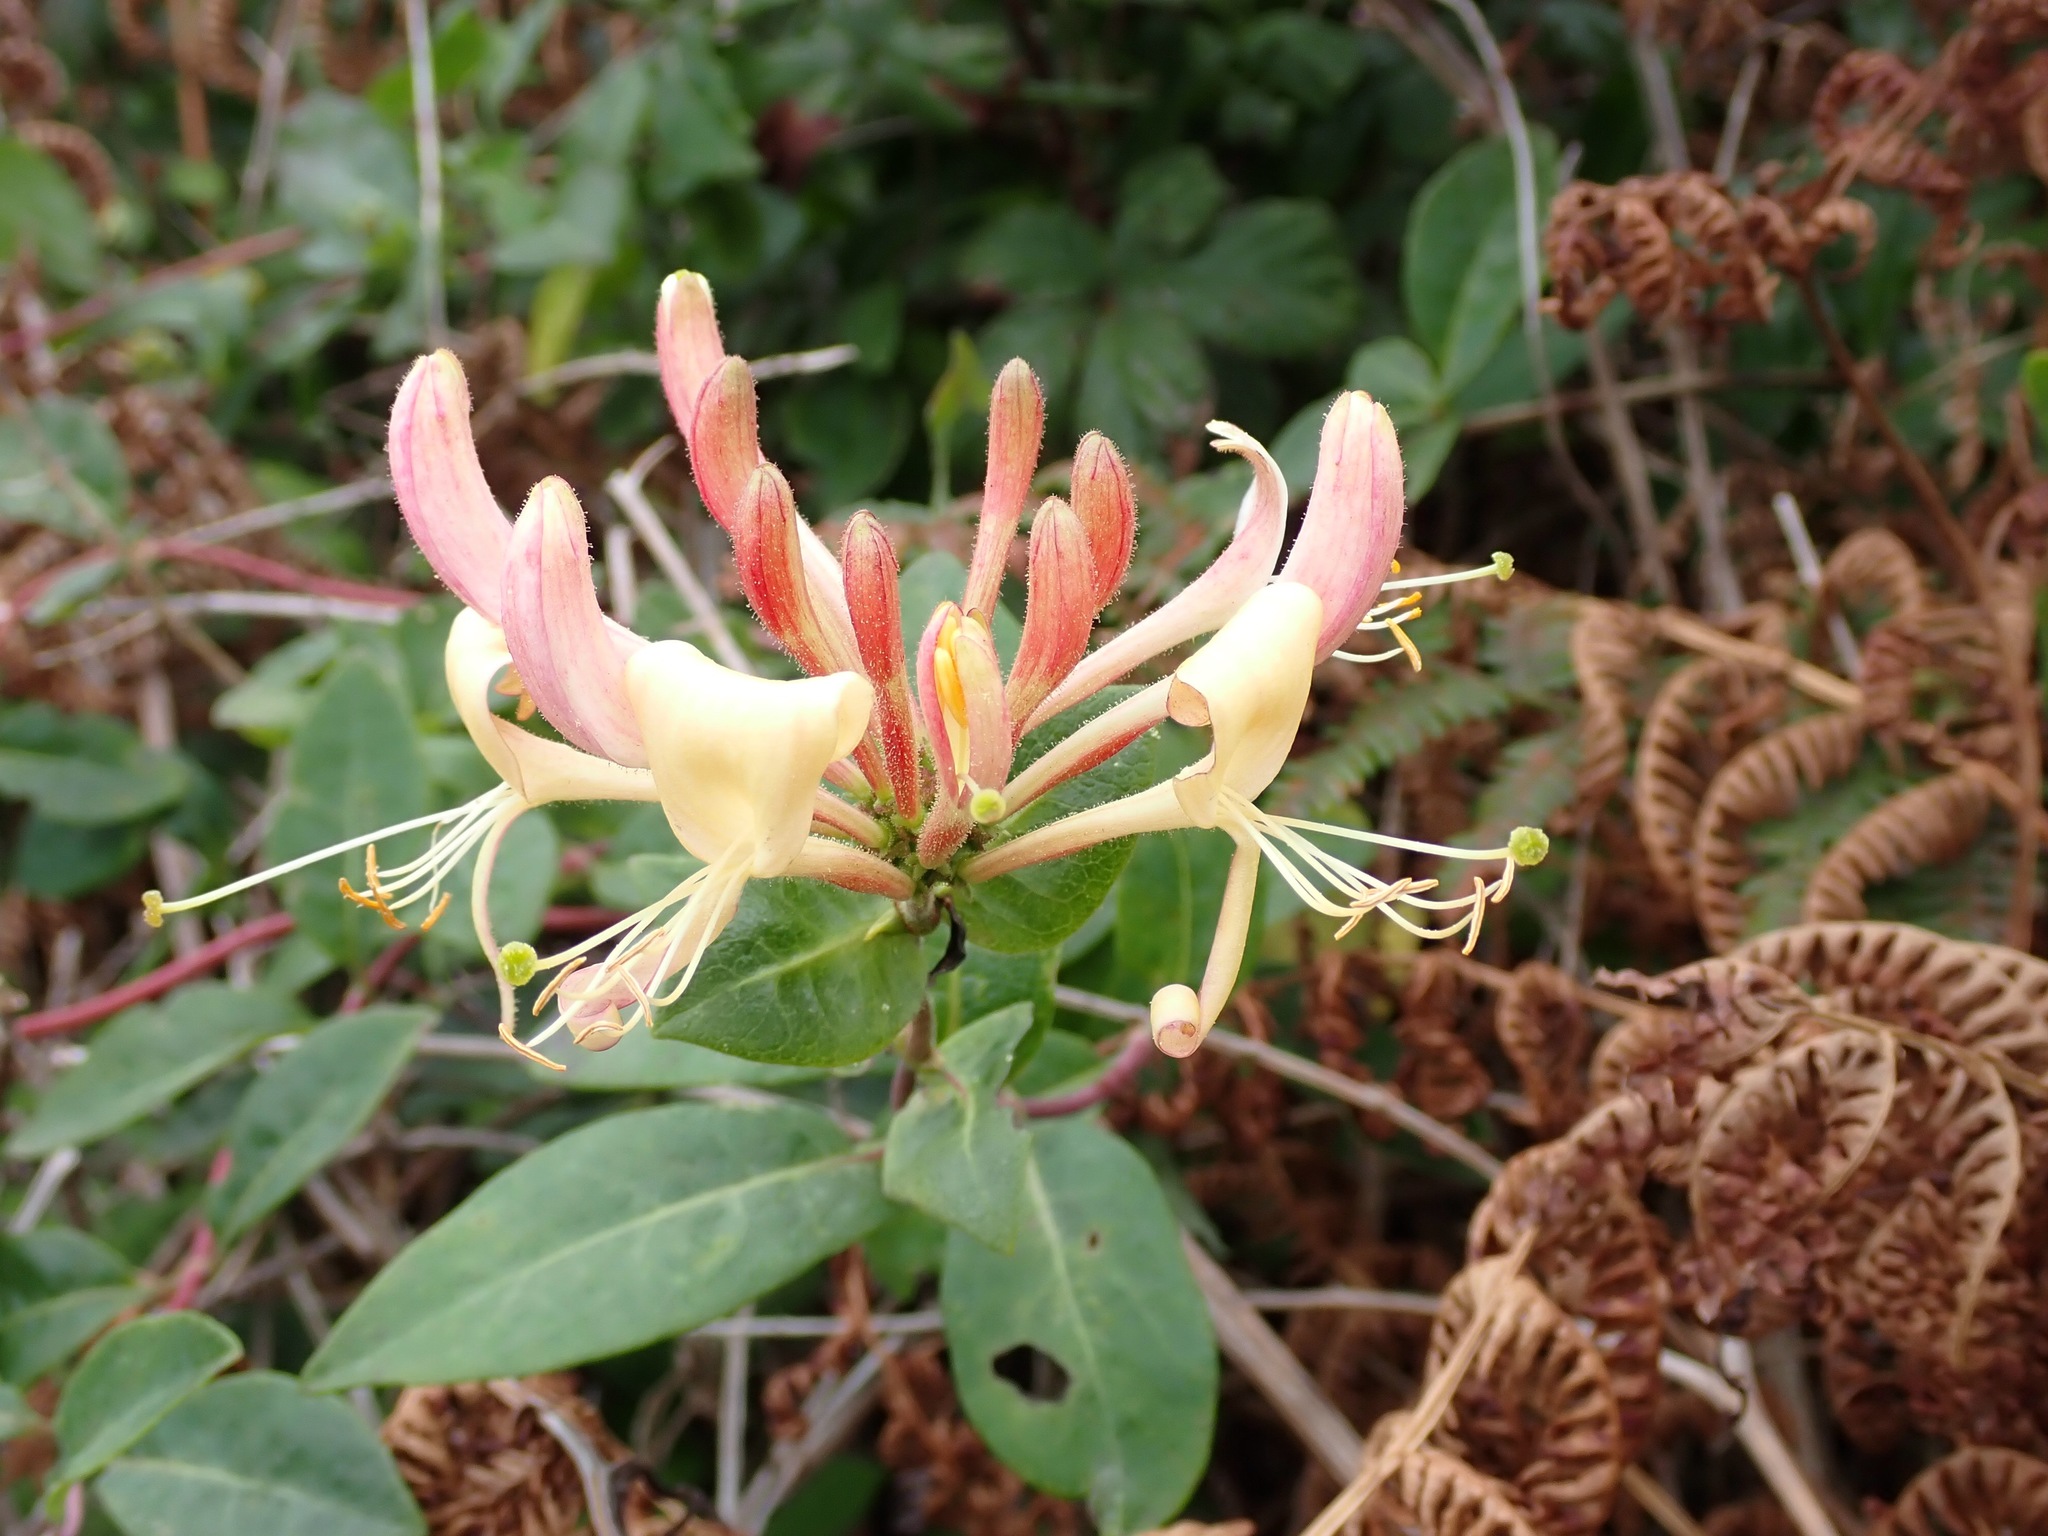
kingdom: Plantae
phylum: Tracheophyta
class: Magnoliopsida
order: Dipsacales
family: Caprifoliaceae
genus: Lonicera
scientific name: Lonicera periclymenum
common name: European honeysuckle
